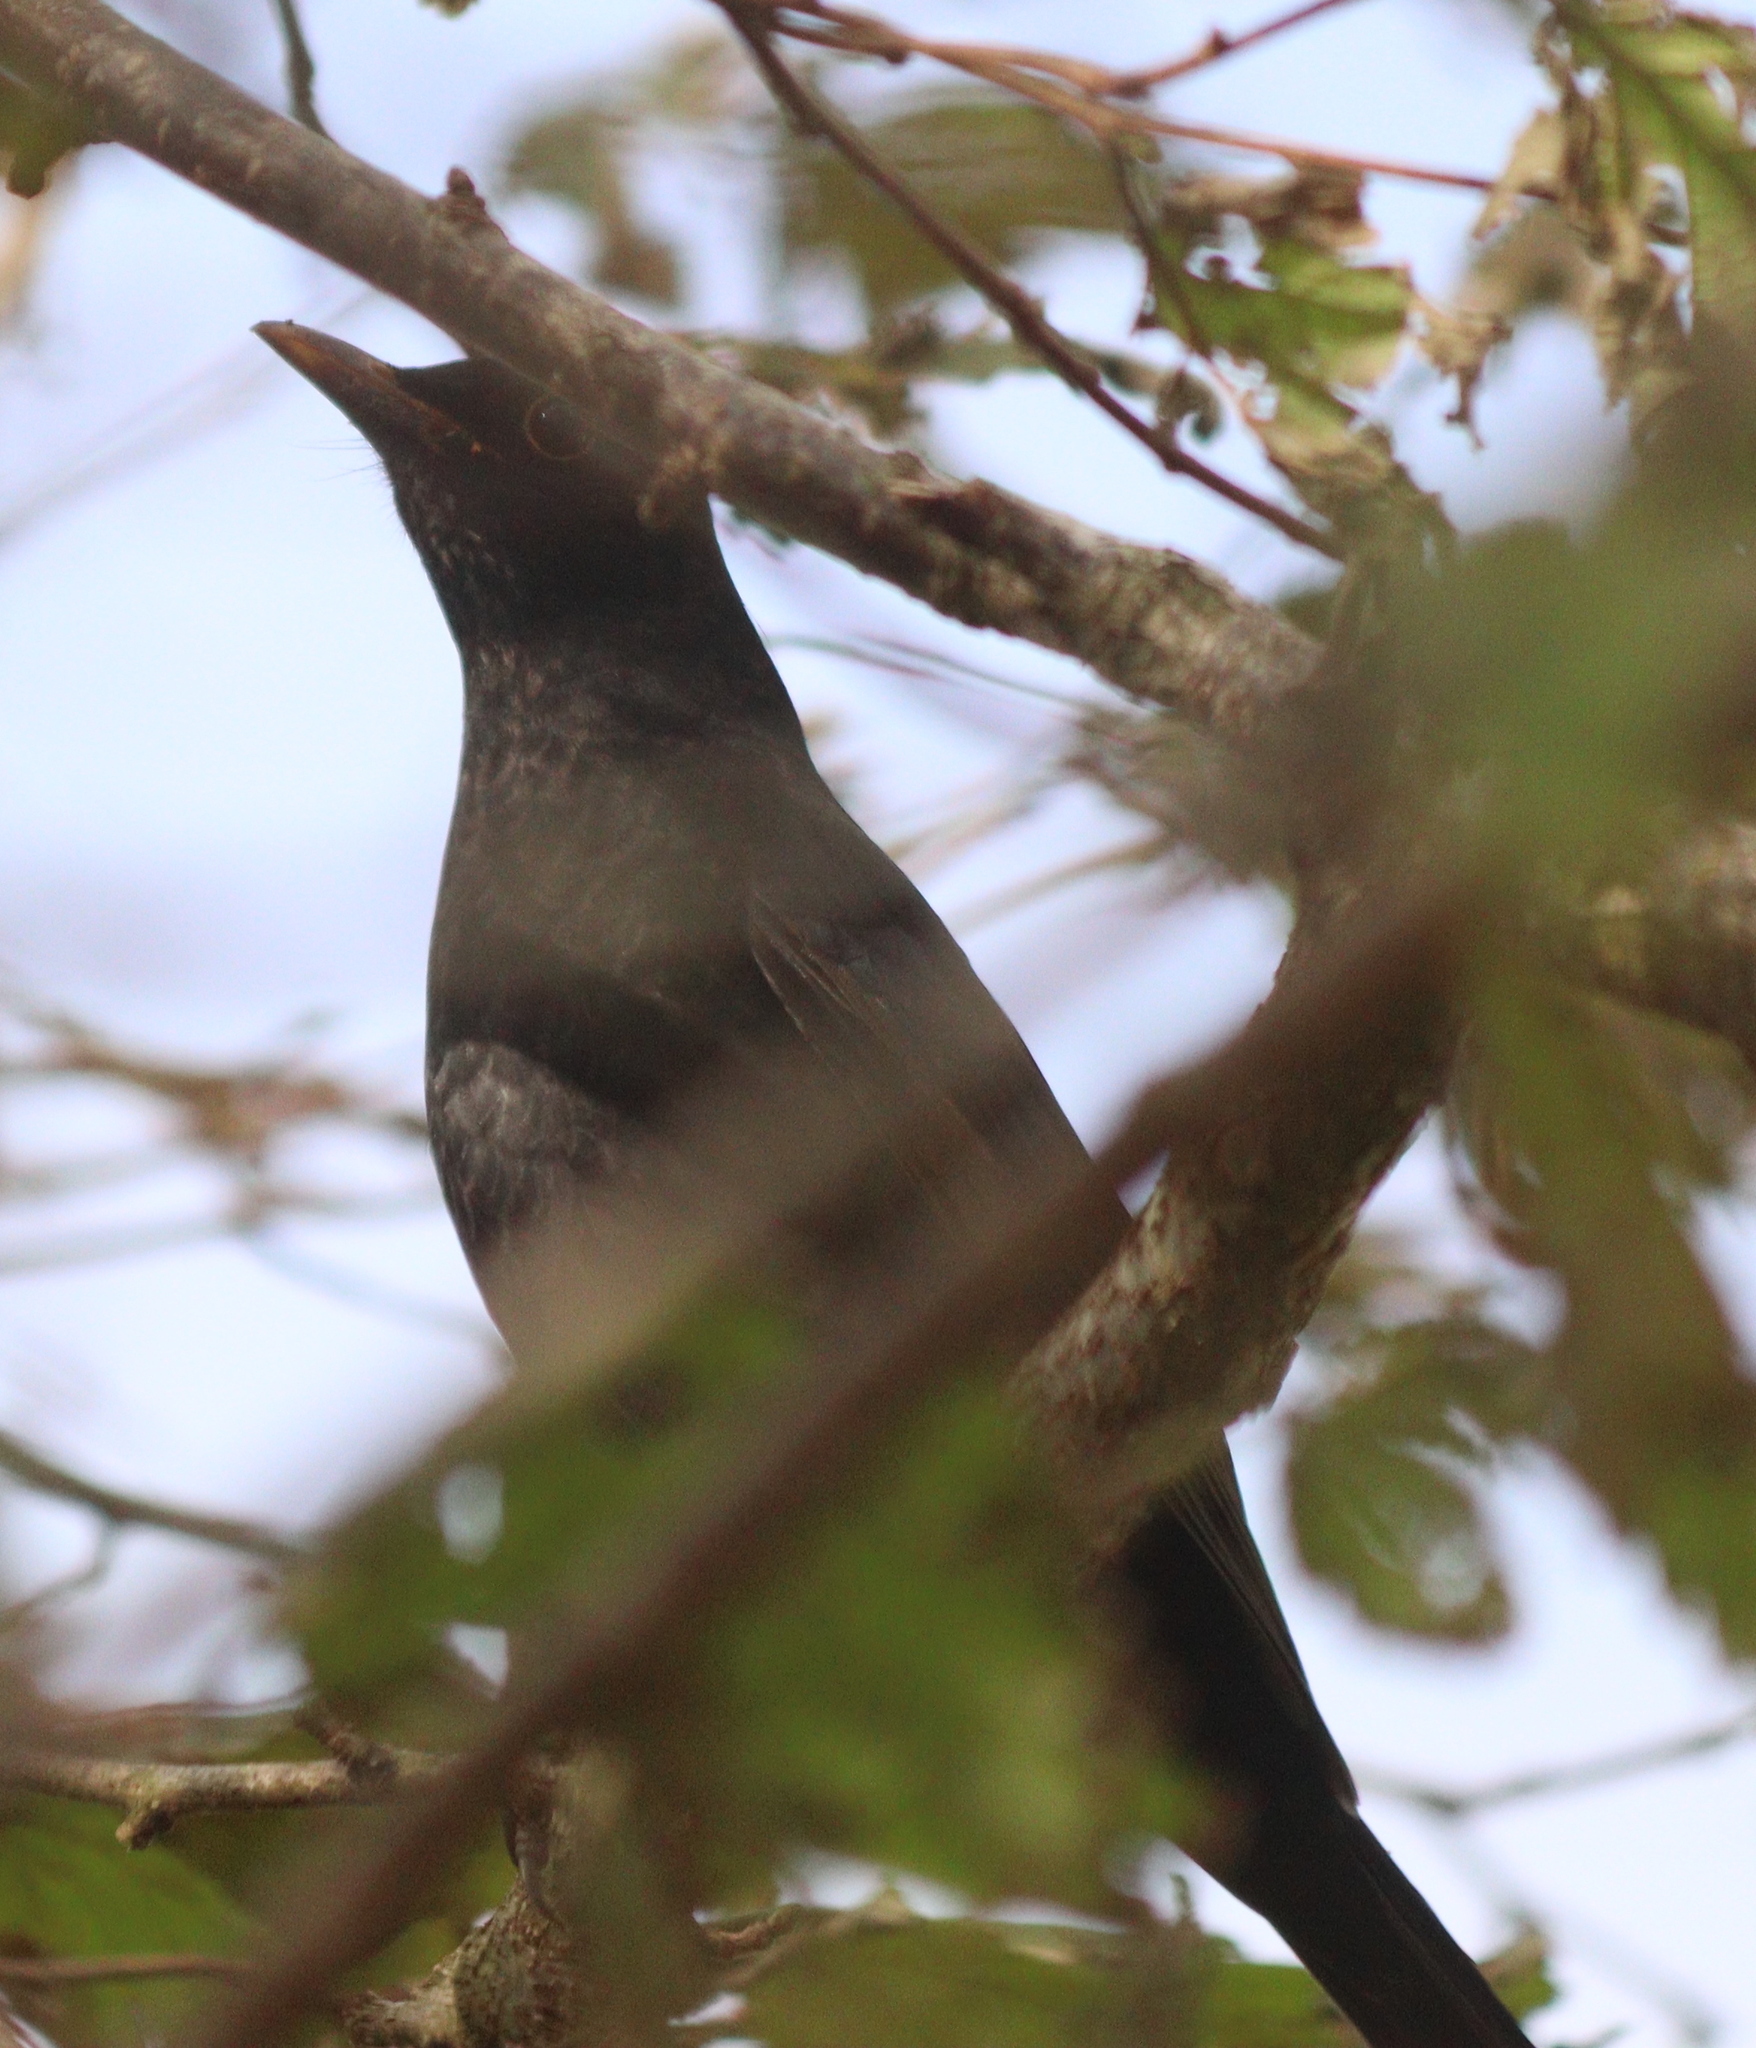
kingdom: Animalia
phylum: Chordata
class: Aves
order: Passeriformes
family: Turdidae
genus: Turdus
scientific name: Turdus merula
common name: Common blackbird
